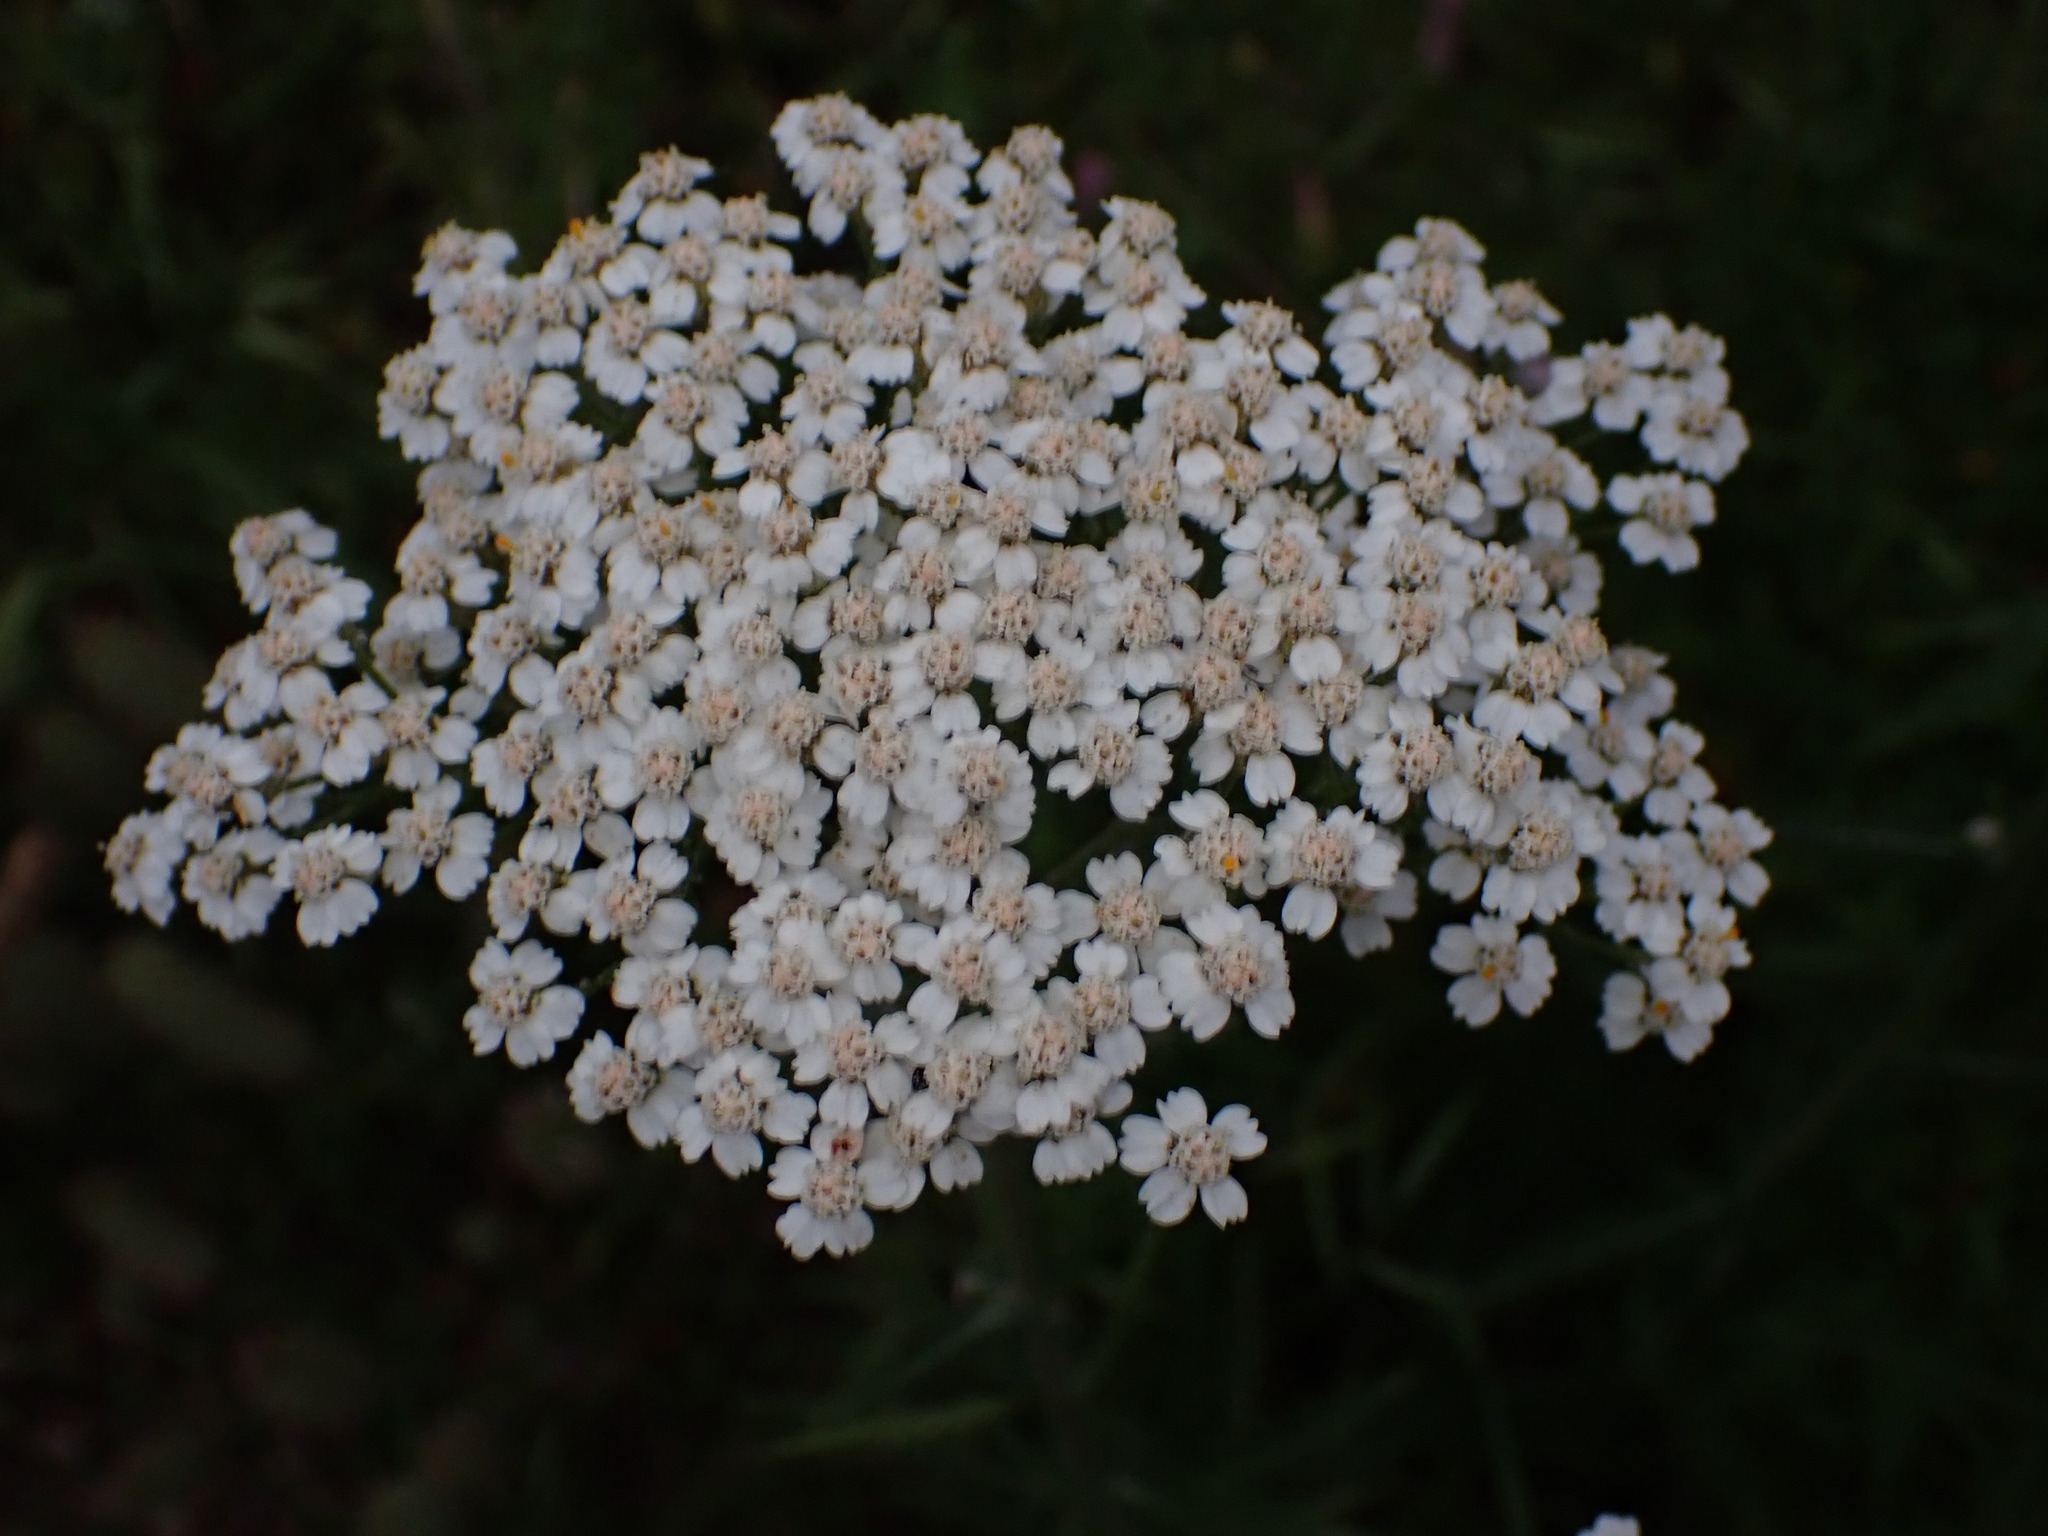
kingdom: Plantae
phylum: Tracheophyta
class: Magnoliopsida
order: Asterales
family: Asteraceae
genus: Achillea
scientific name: Achillea millefolium
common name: Yarrow
